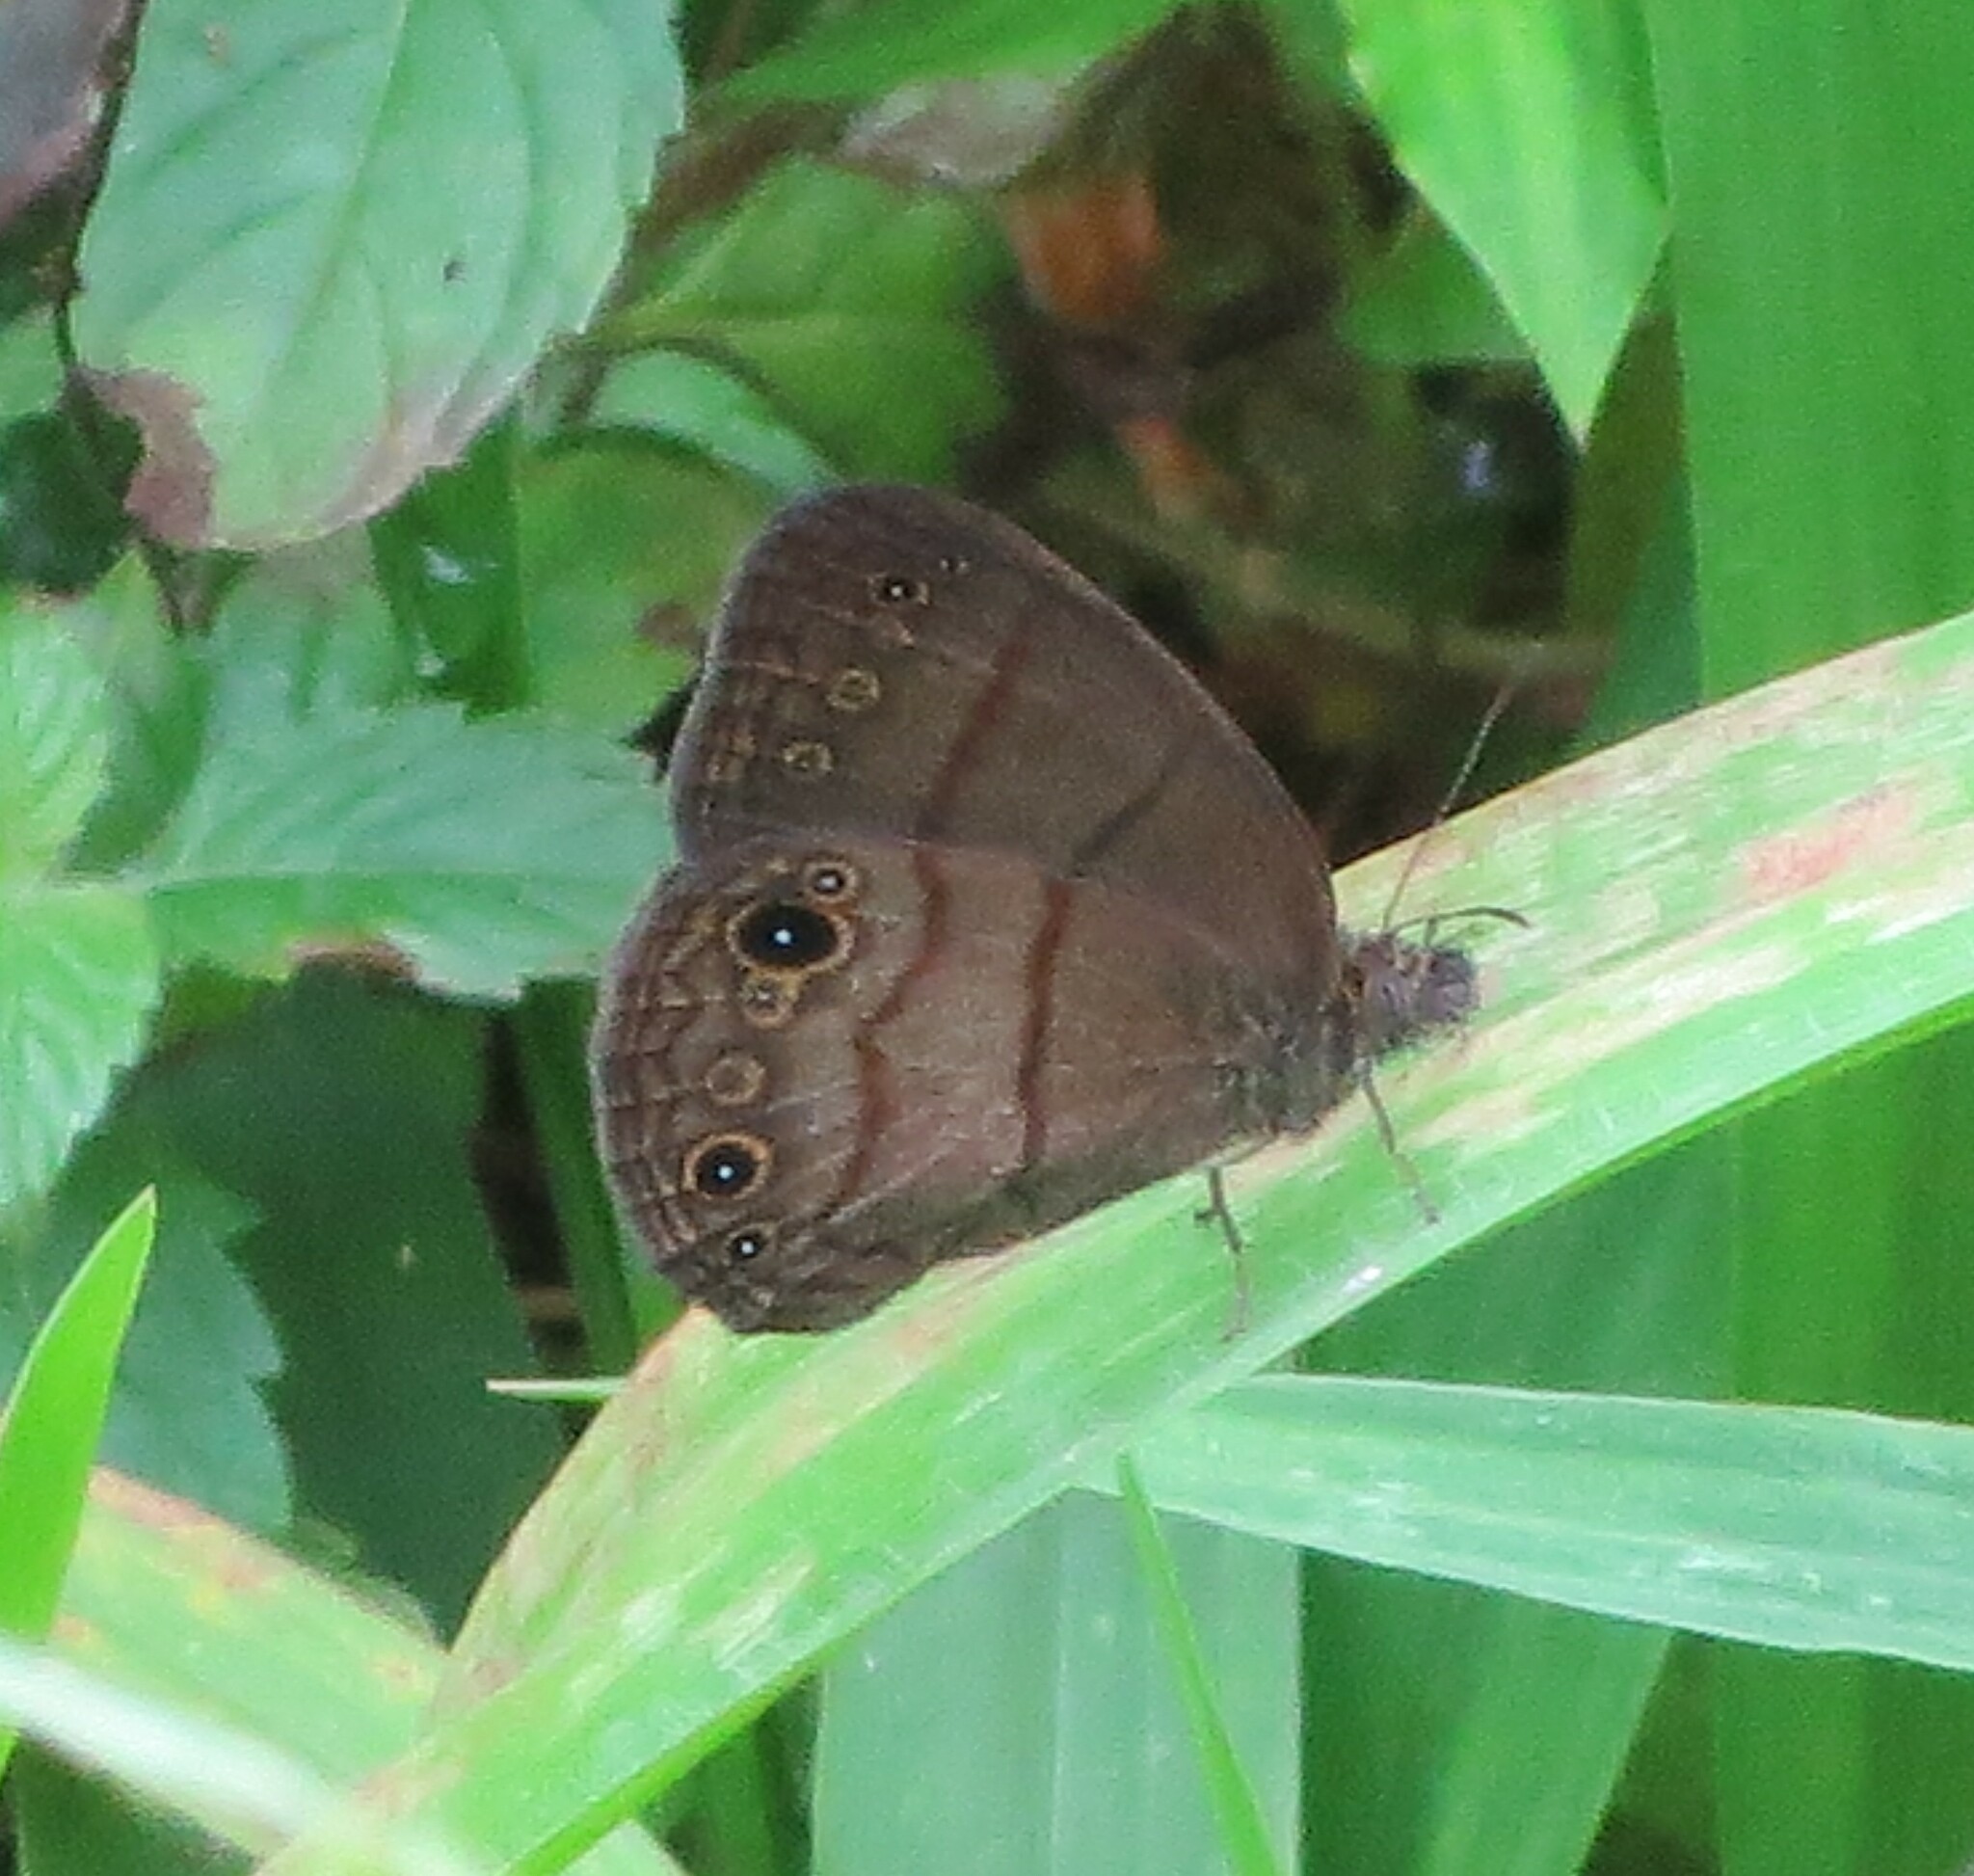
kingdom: Animalia
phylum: Arthropoda
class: Insecta
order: Lepidoptera
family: Nymphalidae
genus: Hermeuptychia
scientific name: Hermeuptychia harmonia
